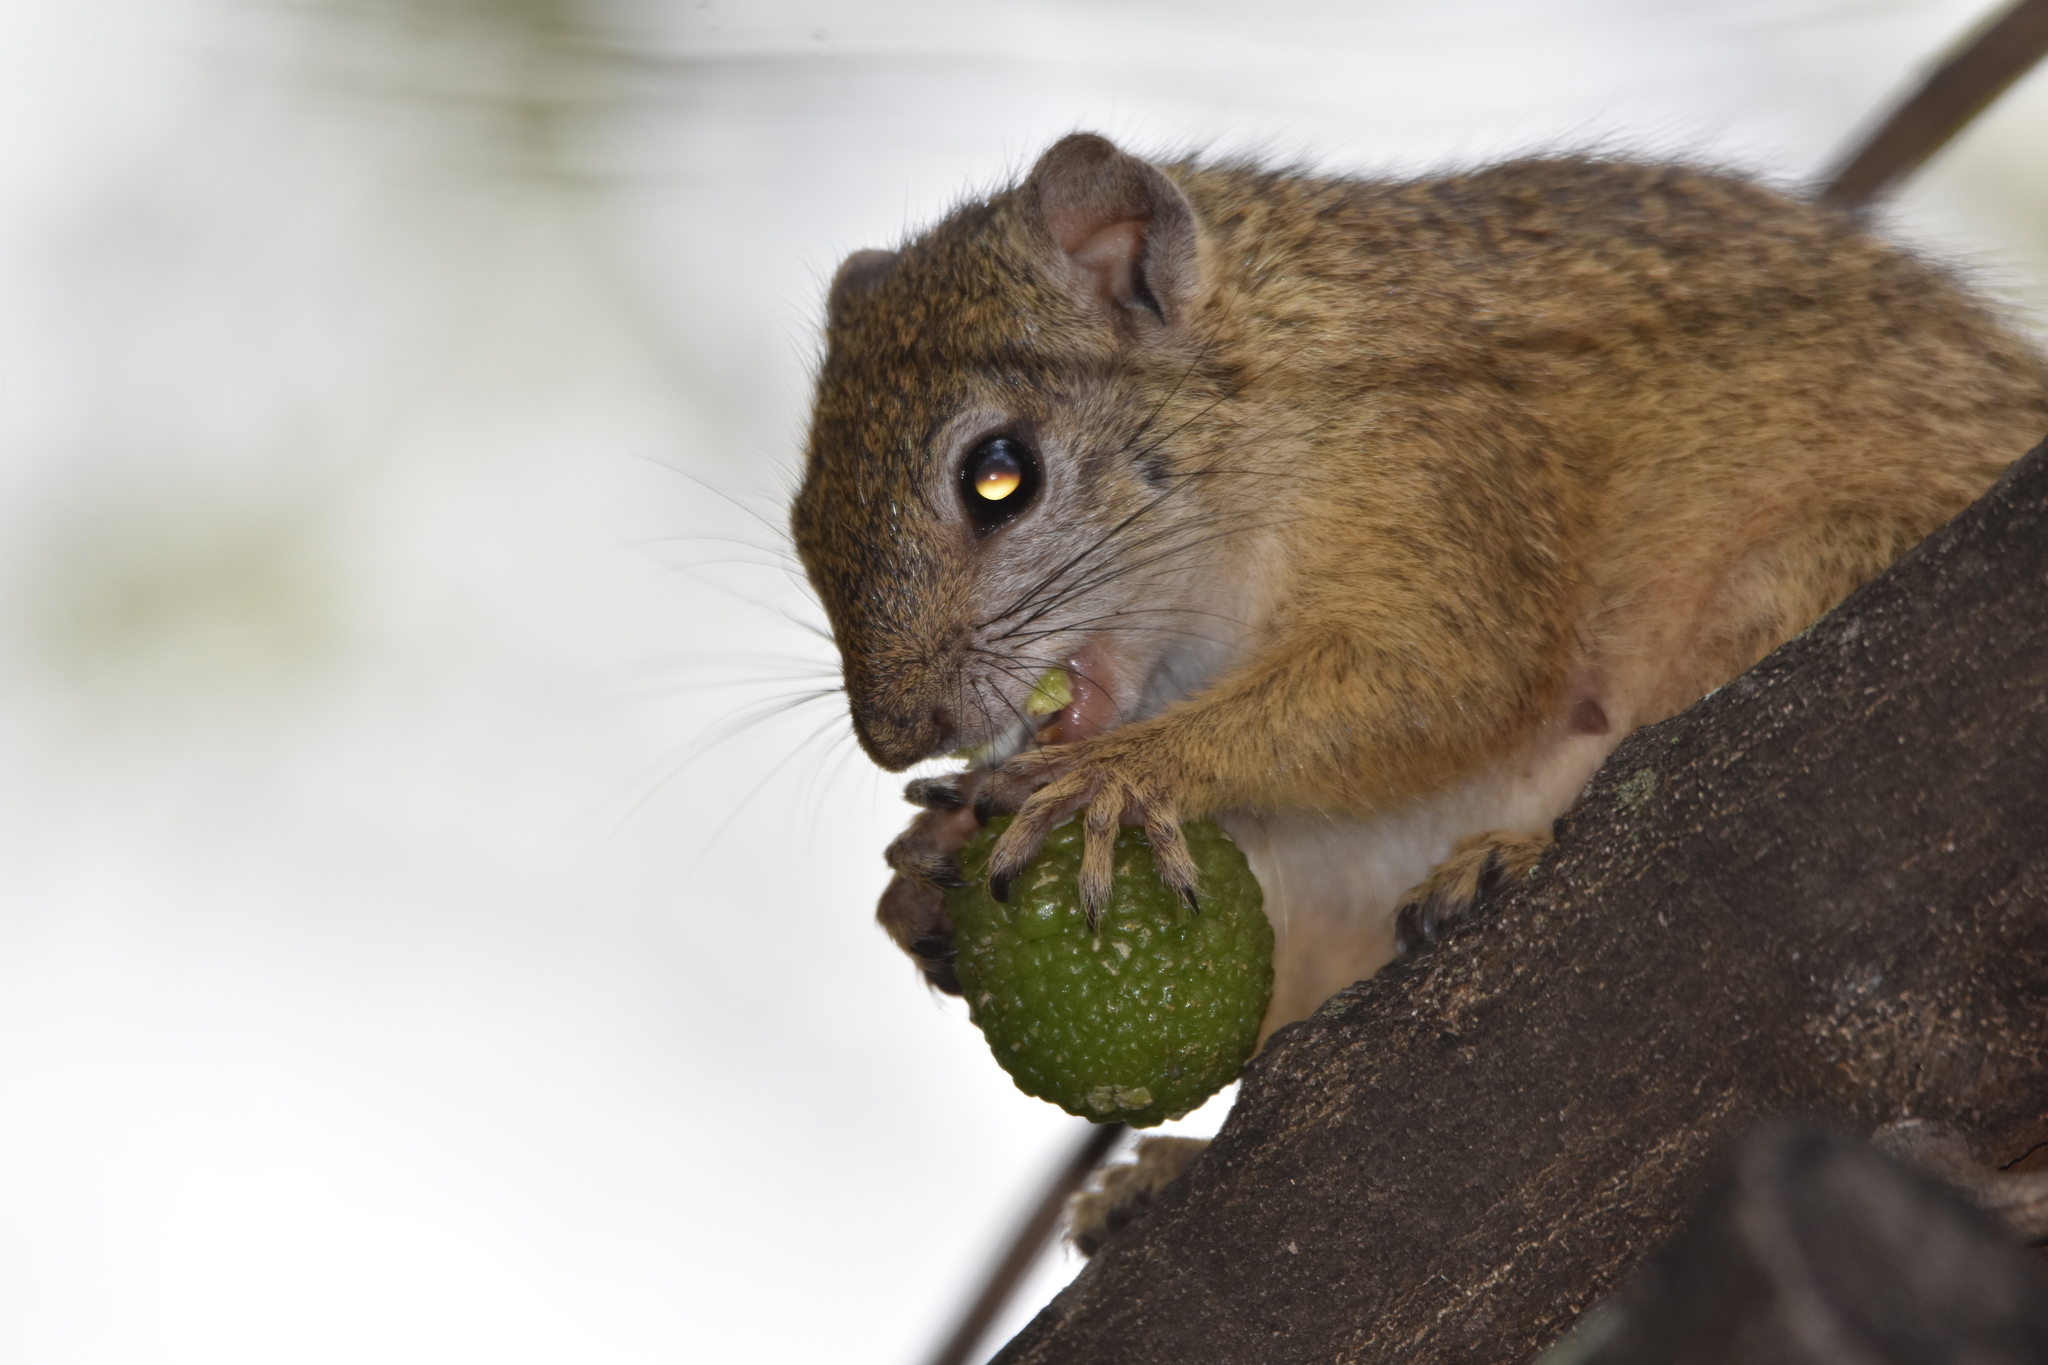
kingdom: Animalia
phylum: Chordata
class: Mammalia
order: Rodentia
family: Sciuridae
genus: Paraxerus
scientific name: Paraxerus cepapi
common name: Smith's bush squirrel
